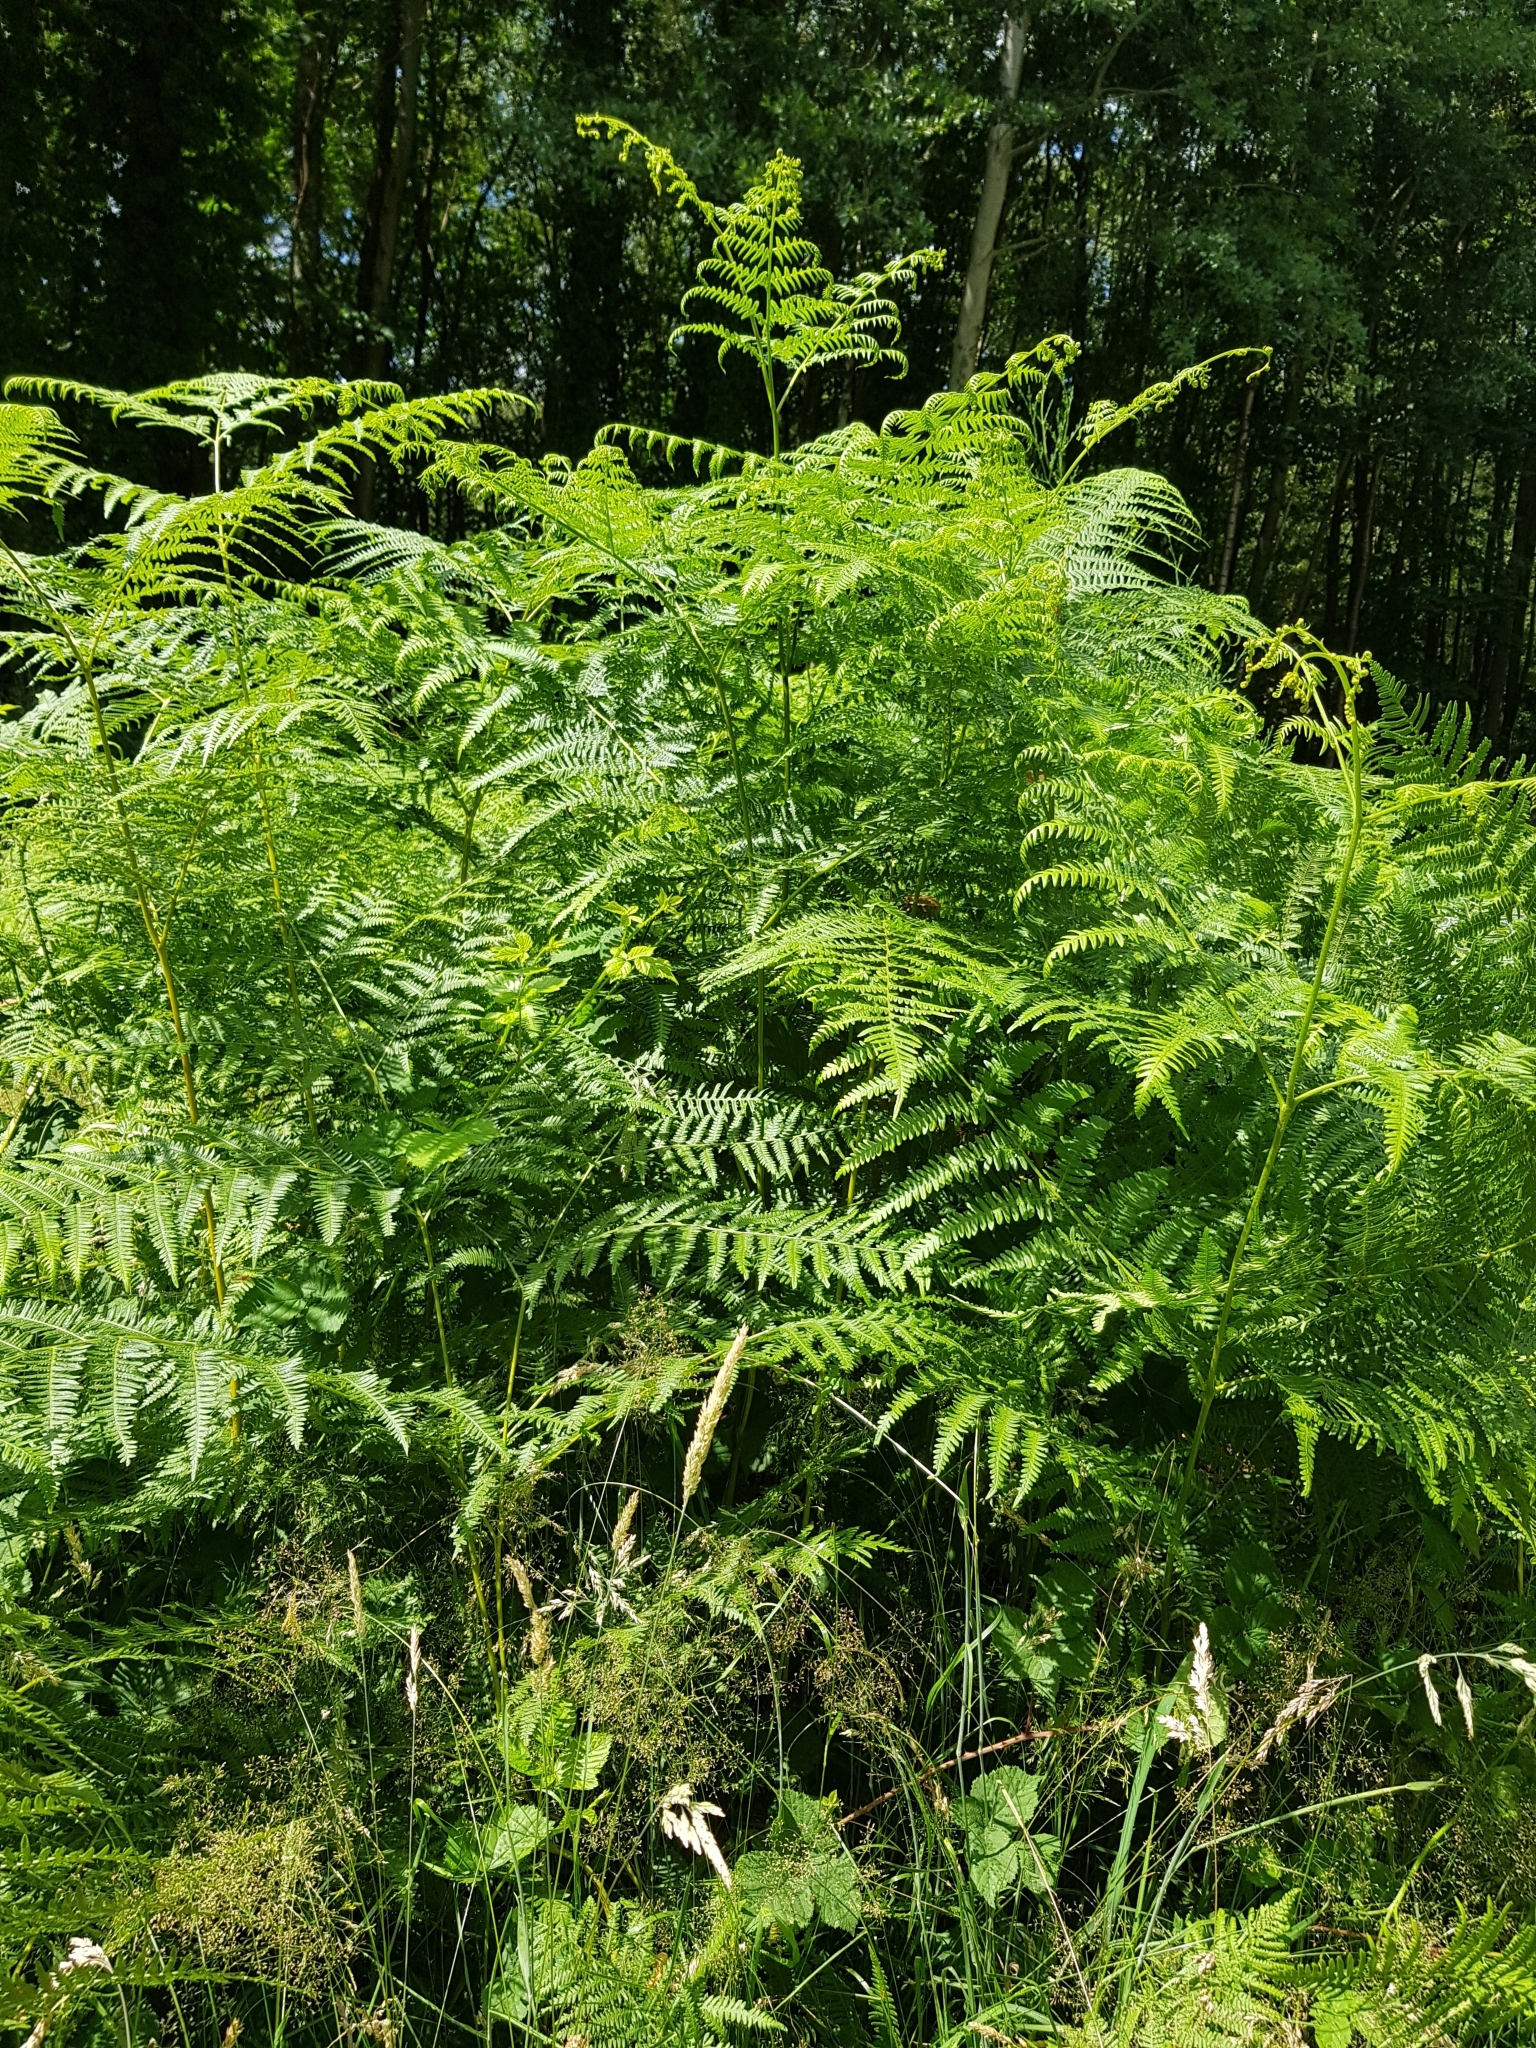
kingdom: Plantae
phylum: Tracheophyta
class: Polypodiopsida
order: Polypodiales
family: Dennstaedtiaceae
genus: Pteridium
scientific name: Pteridium aquilinum
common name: Bracken
